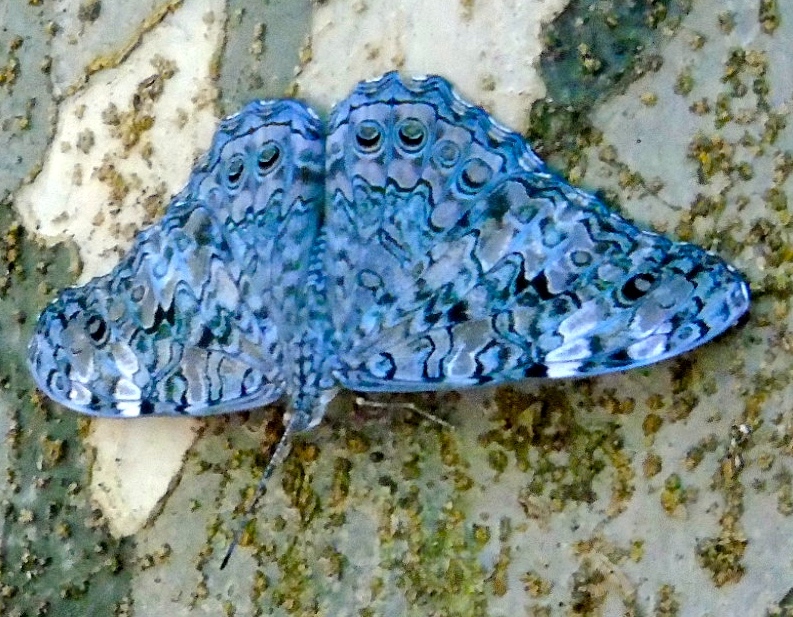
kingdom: Animalia
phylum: Arthropoda
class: Insecta
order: Lepidoptera
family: Nymphalidae
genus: Hamadryas
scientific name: Hamadryas februa
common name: Gray cracker
